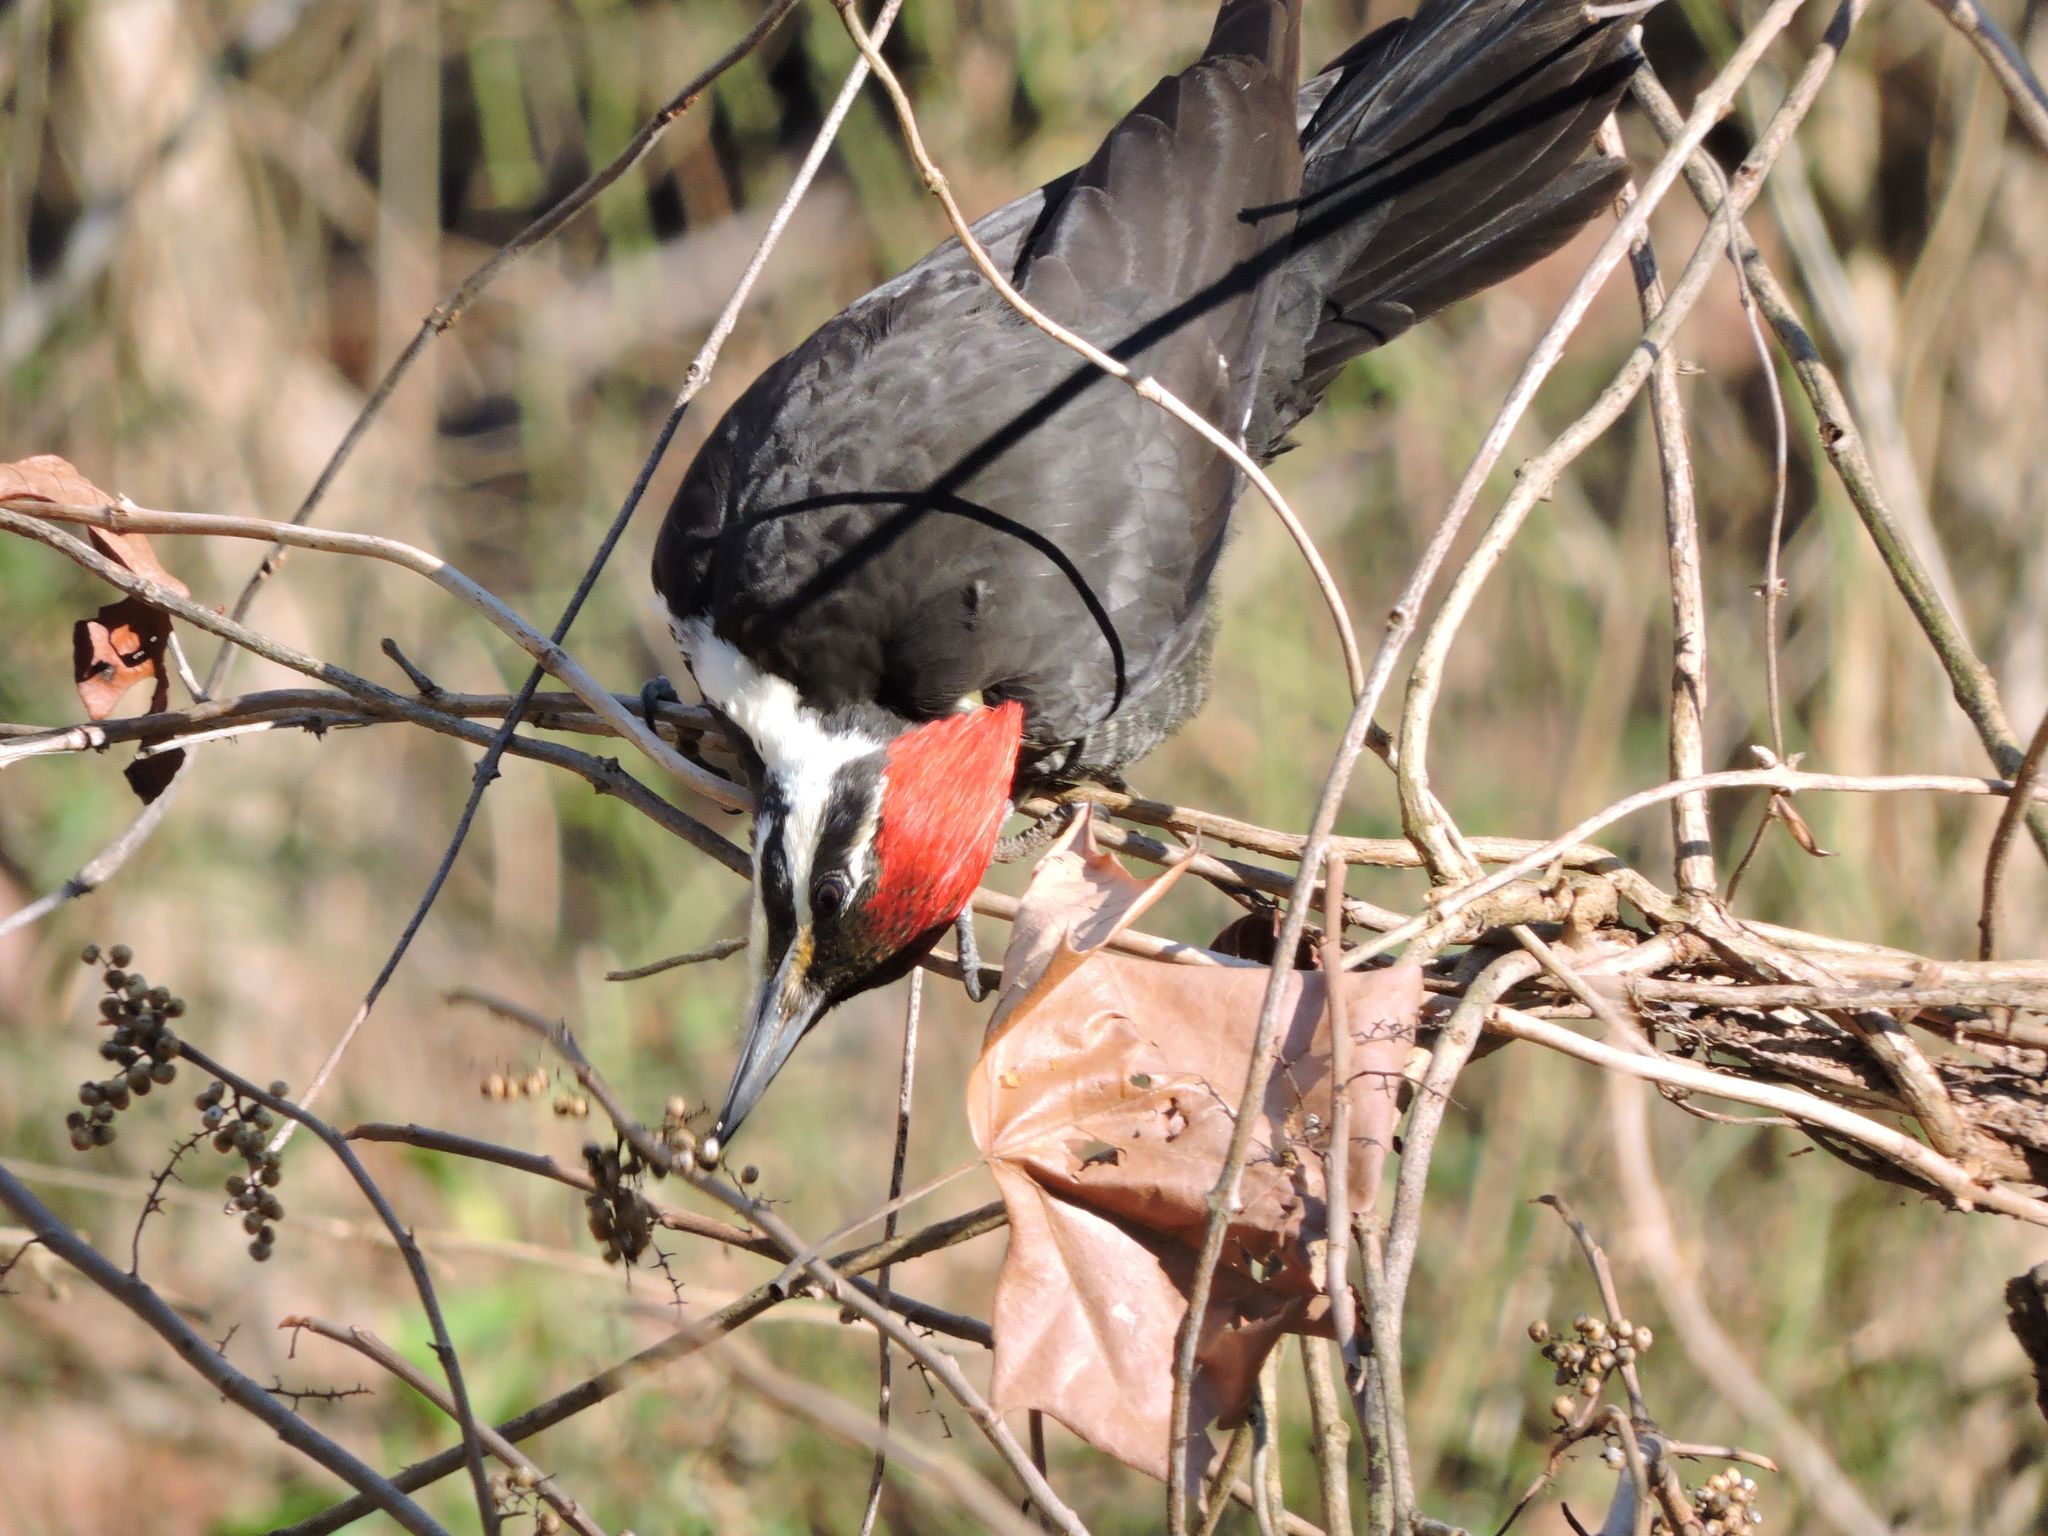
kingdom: Animalia
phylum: Chordata
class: Aves
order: Piciformes
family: Picidae
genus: Dryocopus
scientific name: Dryocopus pileatus
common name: Pileated woodpecker
